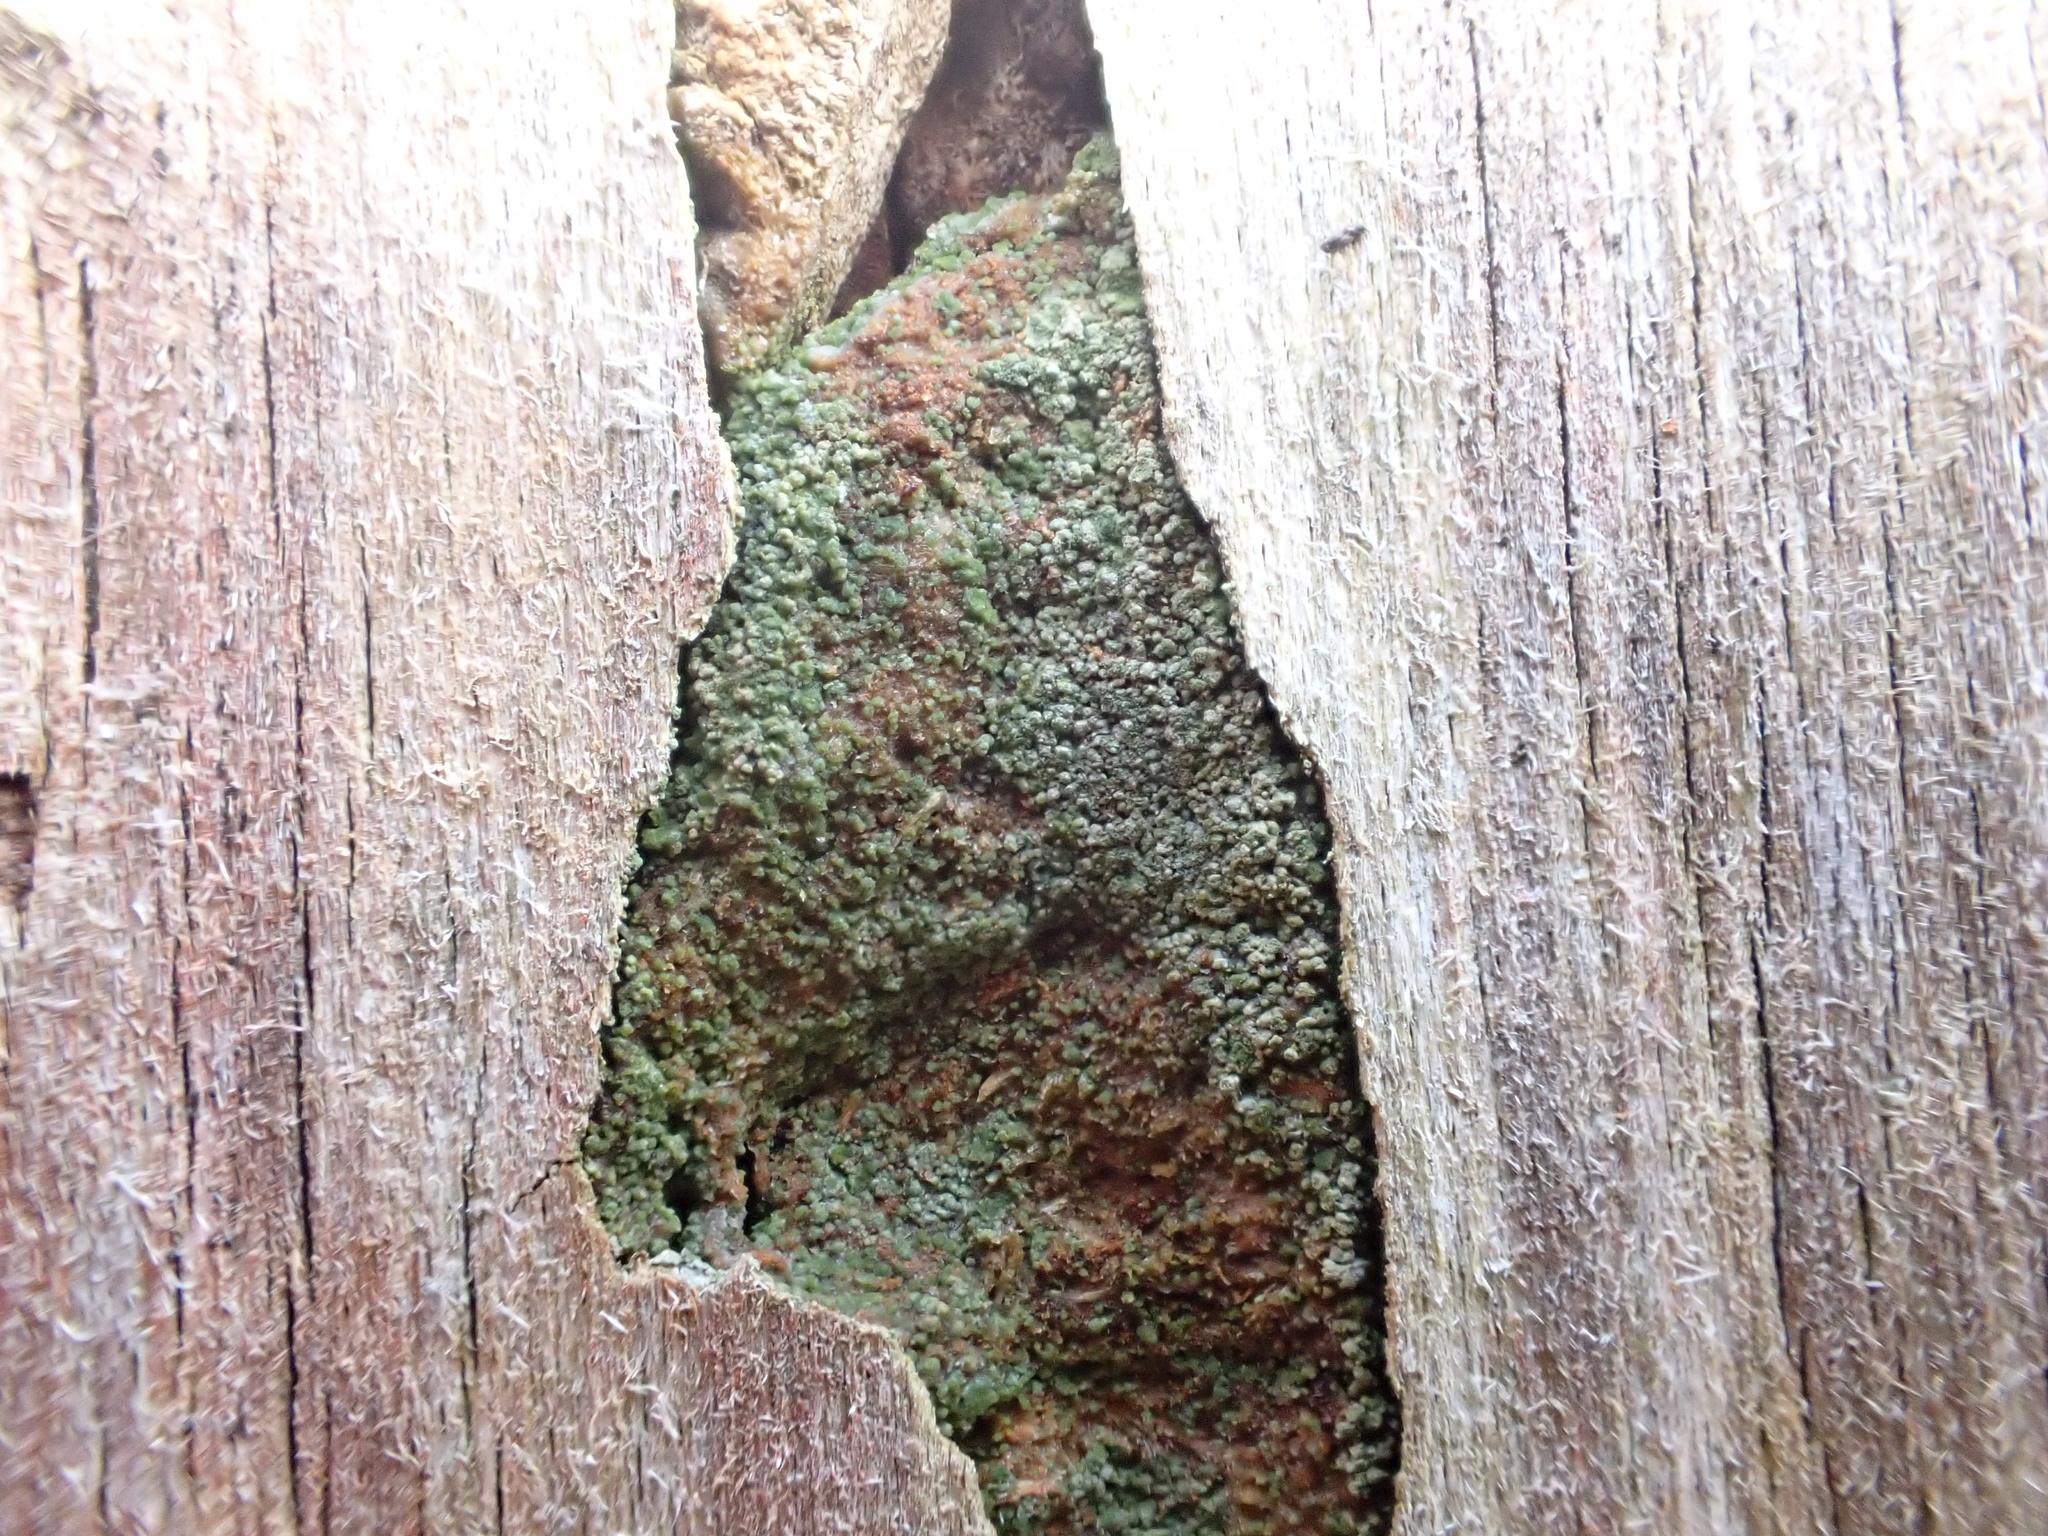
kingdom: Fungi
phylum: Ascomycota
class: Lecanoromycetes
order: Baeomycetales
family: Trapeliaceae
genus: Trapeliopsis
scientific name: Trapeliopsis flexuosa
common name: Board lichen
